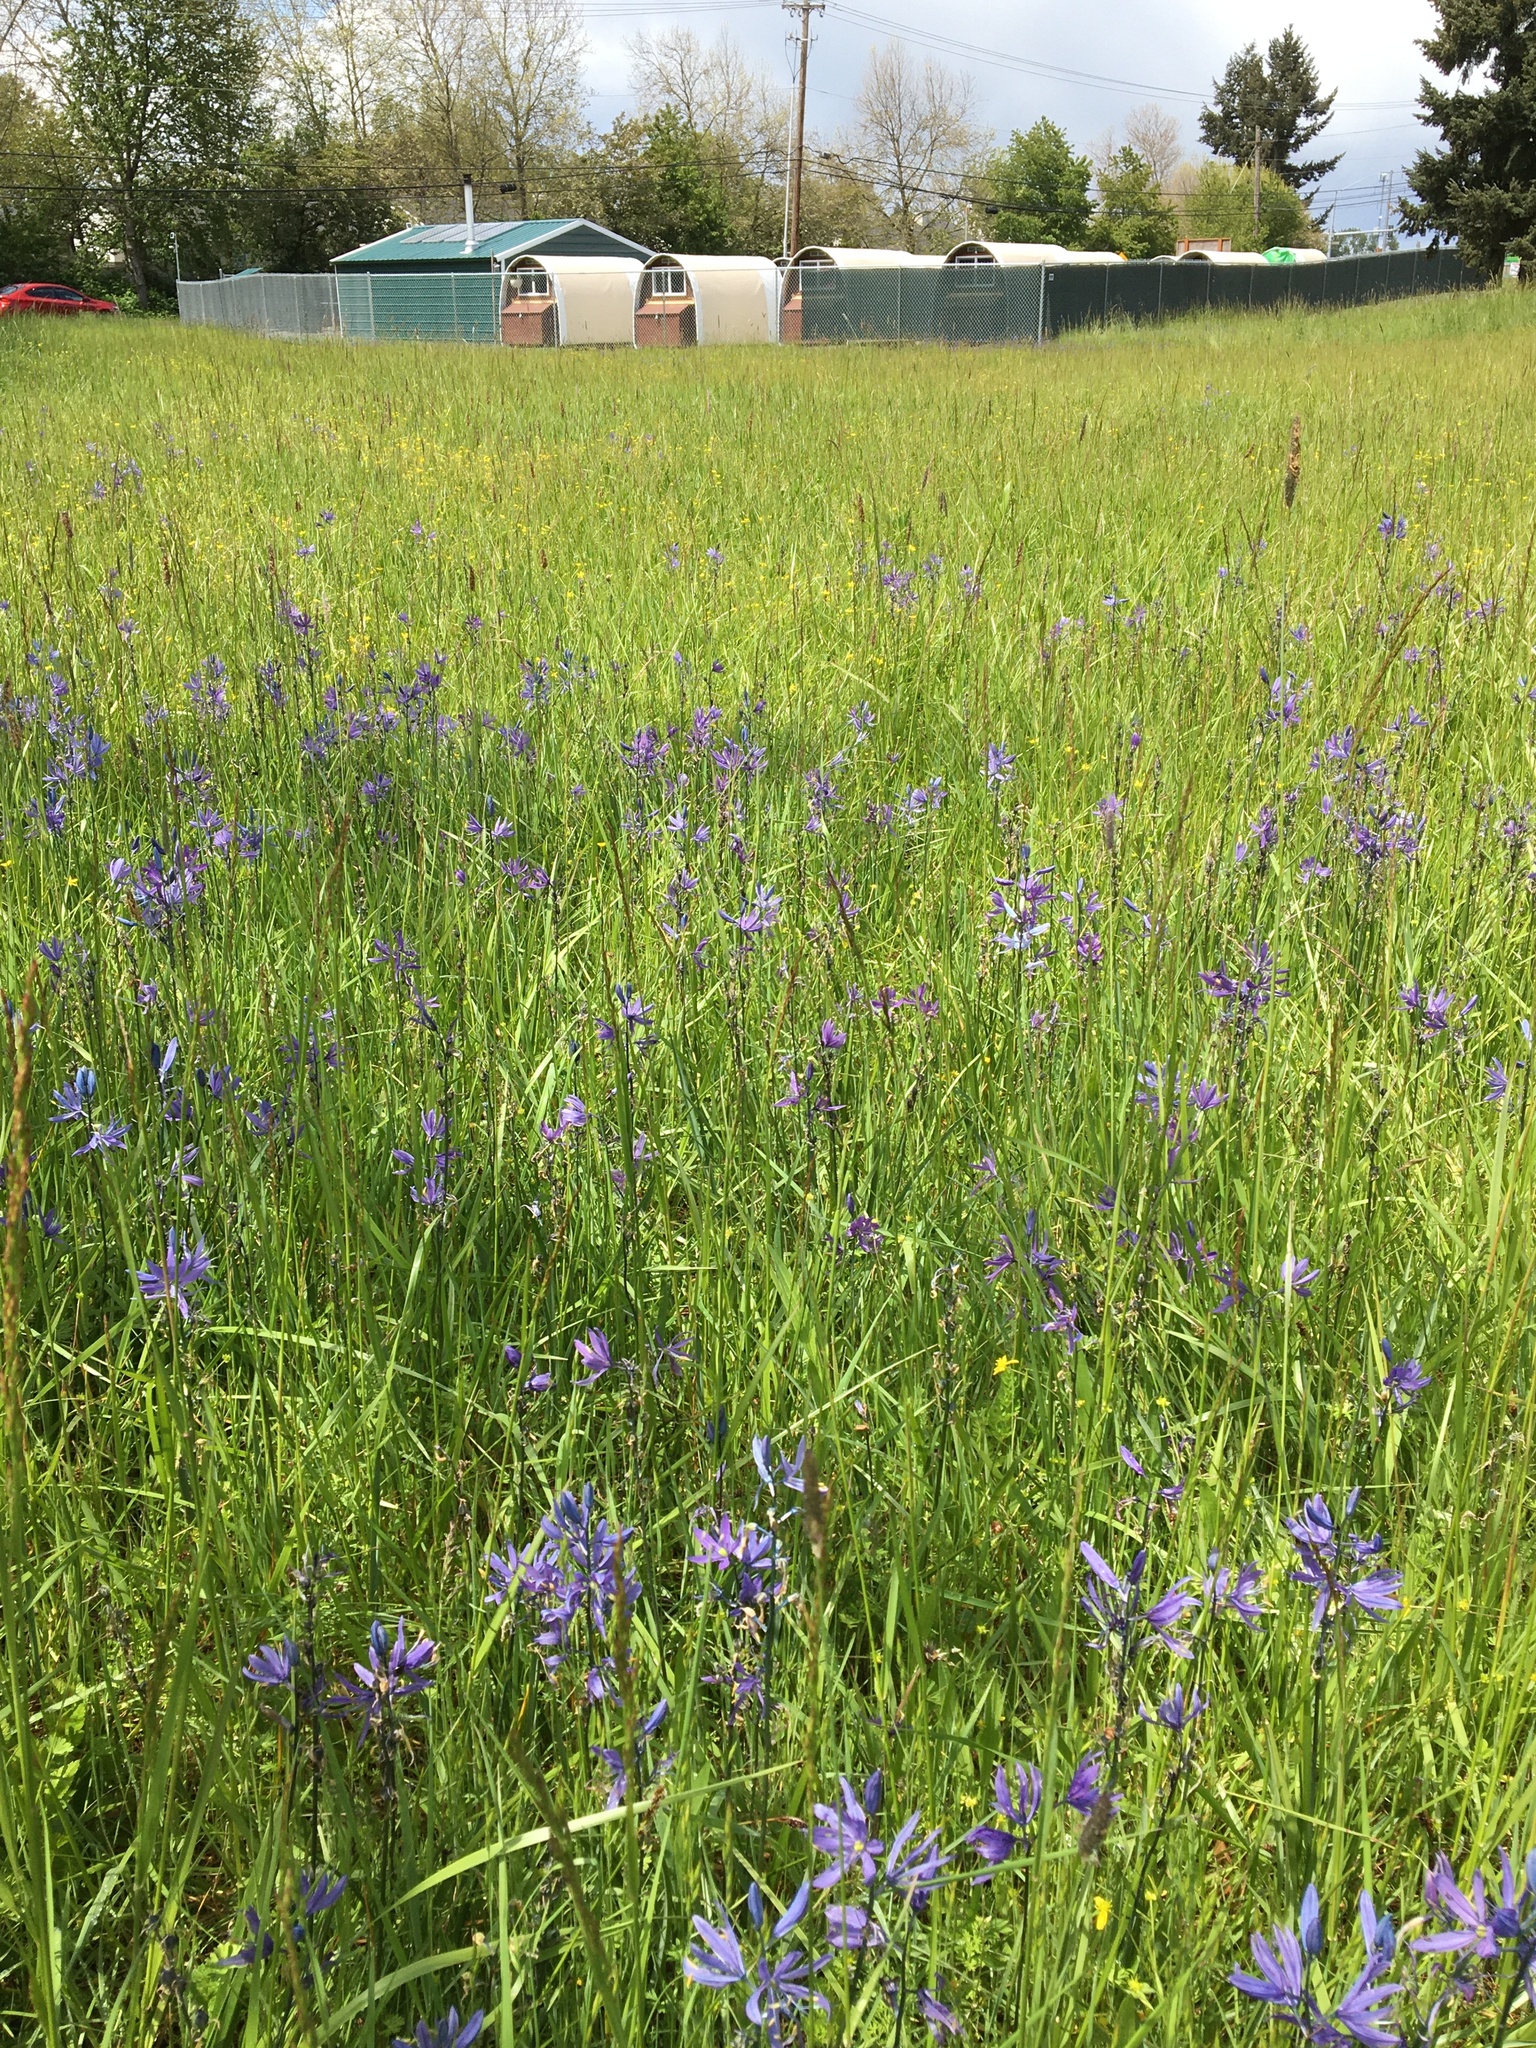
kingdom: Plantae
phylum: Tracheophyta
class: Liliopsida
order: Asparagales
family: Asparagaceae
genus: Camassia
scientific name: Camassia quamash
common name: Common camas
